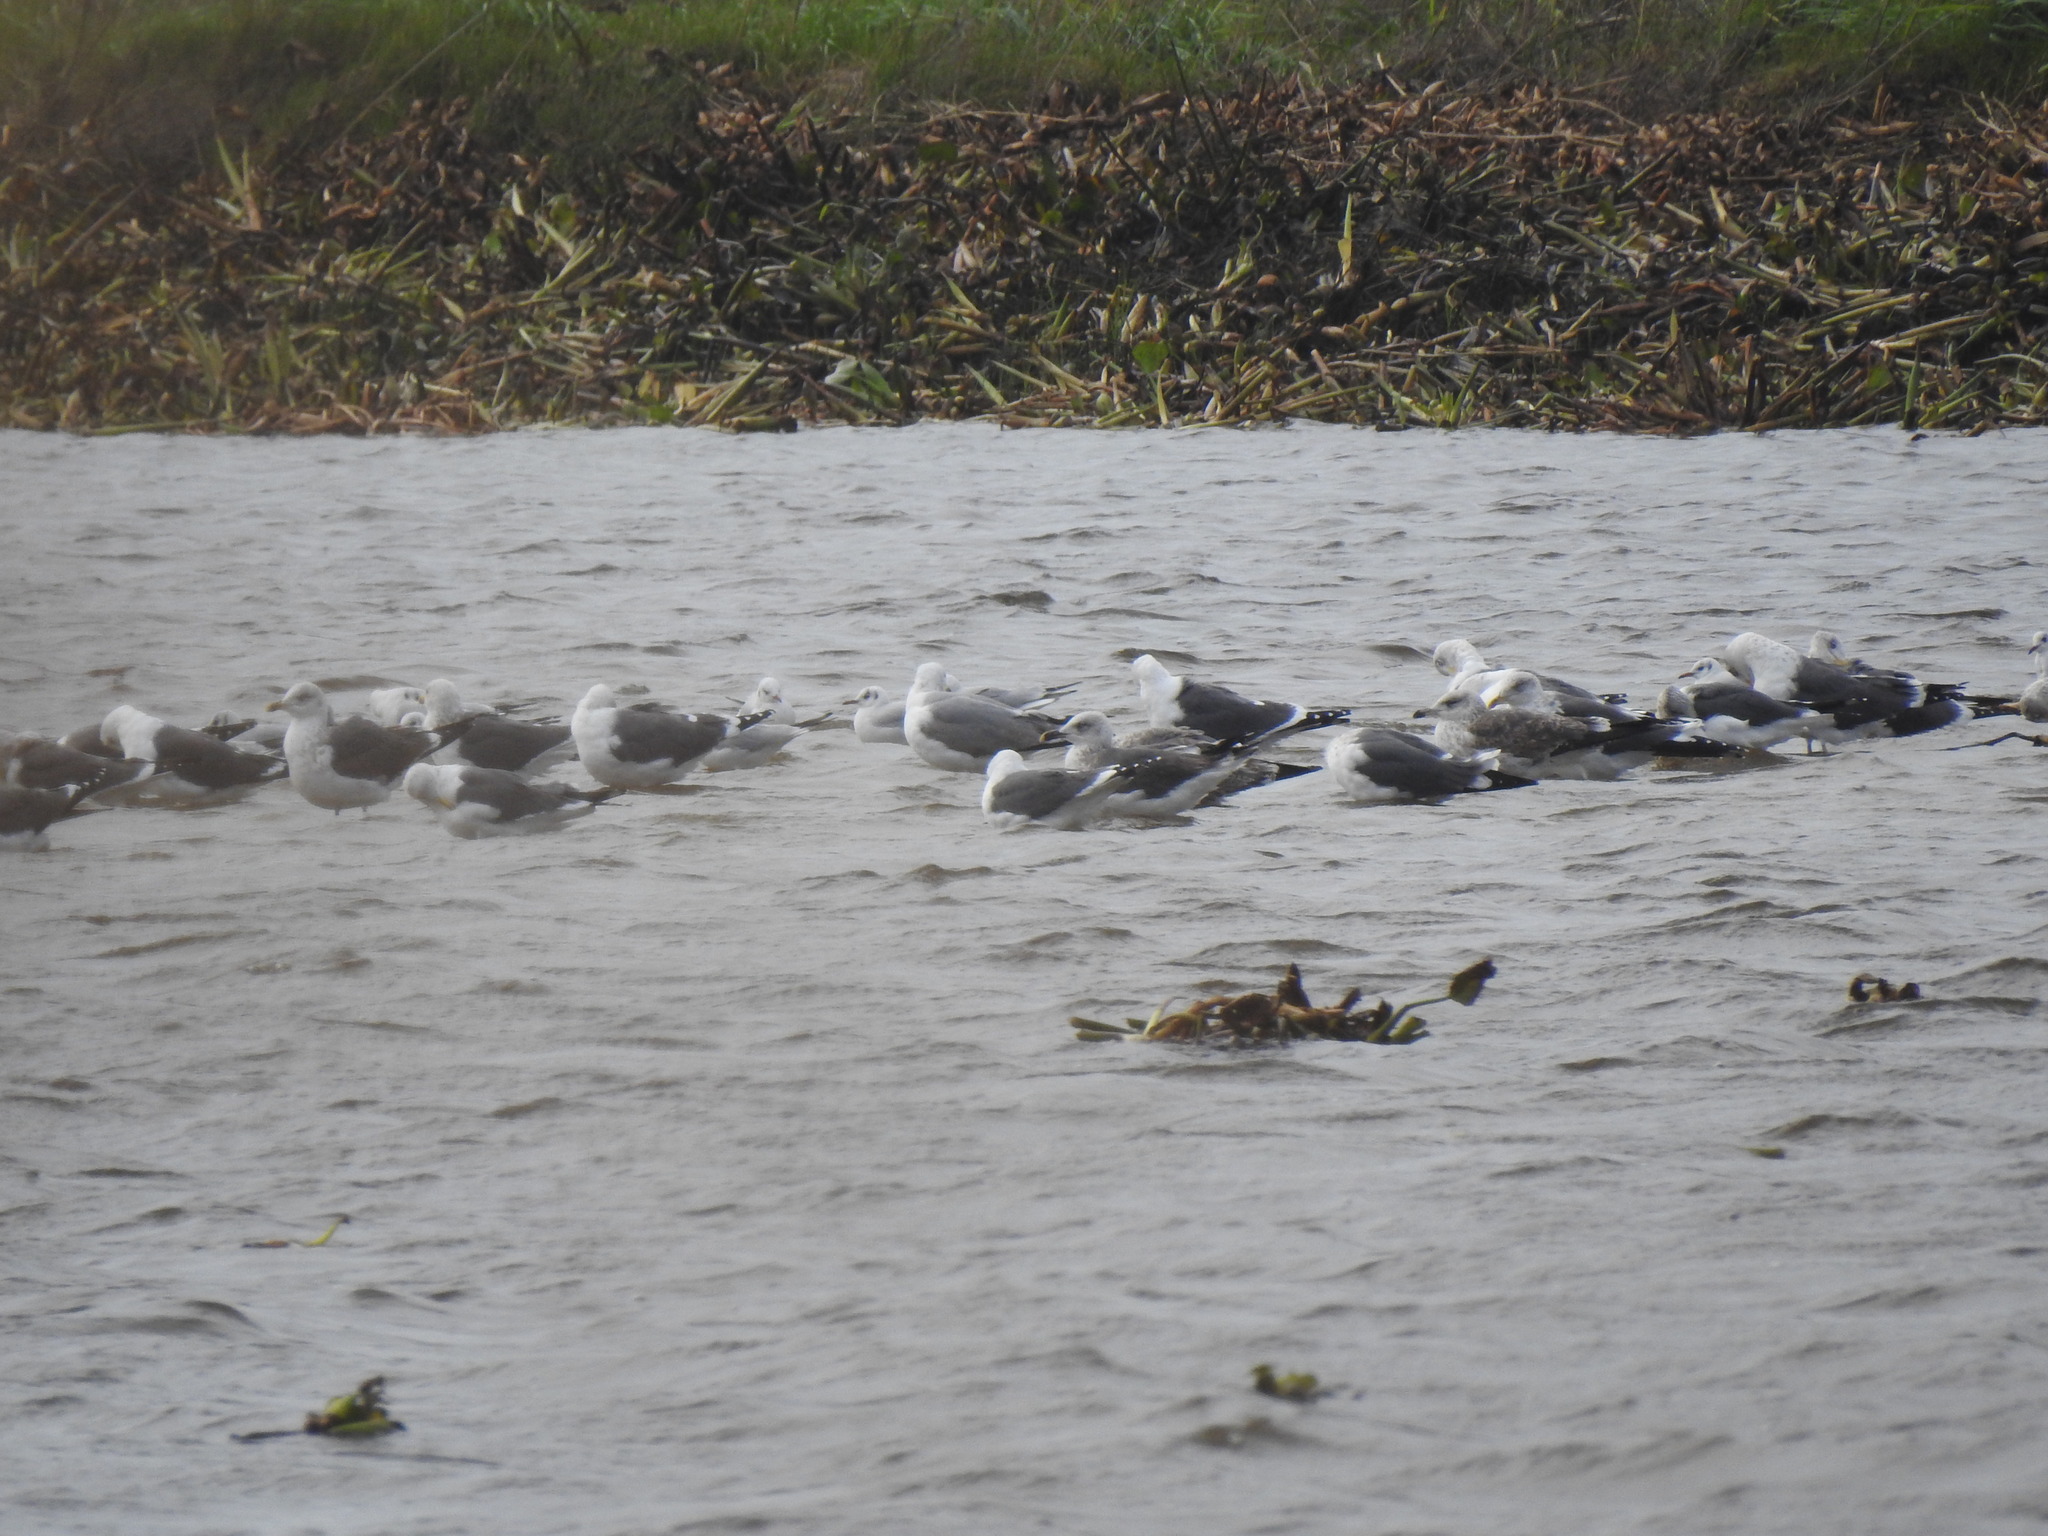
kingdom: Animalia
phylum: Chordata
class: Aves
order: Charadriiformes
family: Laridae
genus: Larus
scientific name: Larus fuscus
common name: Lesser black-backed gull
